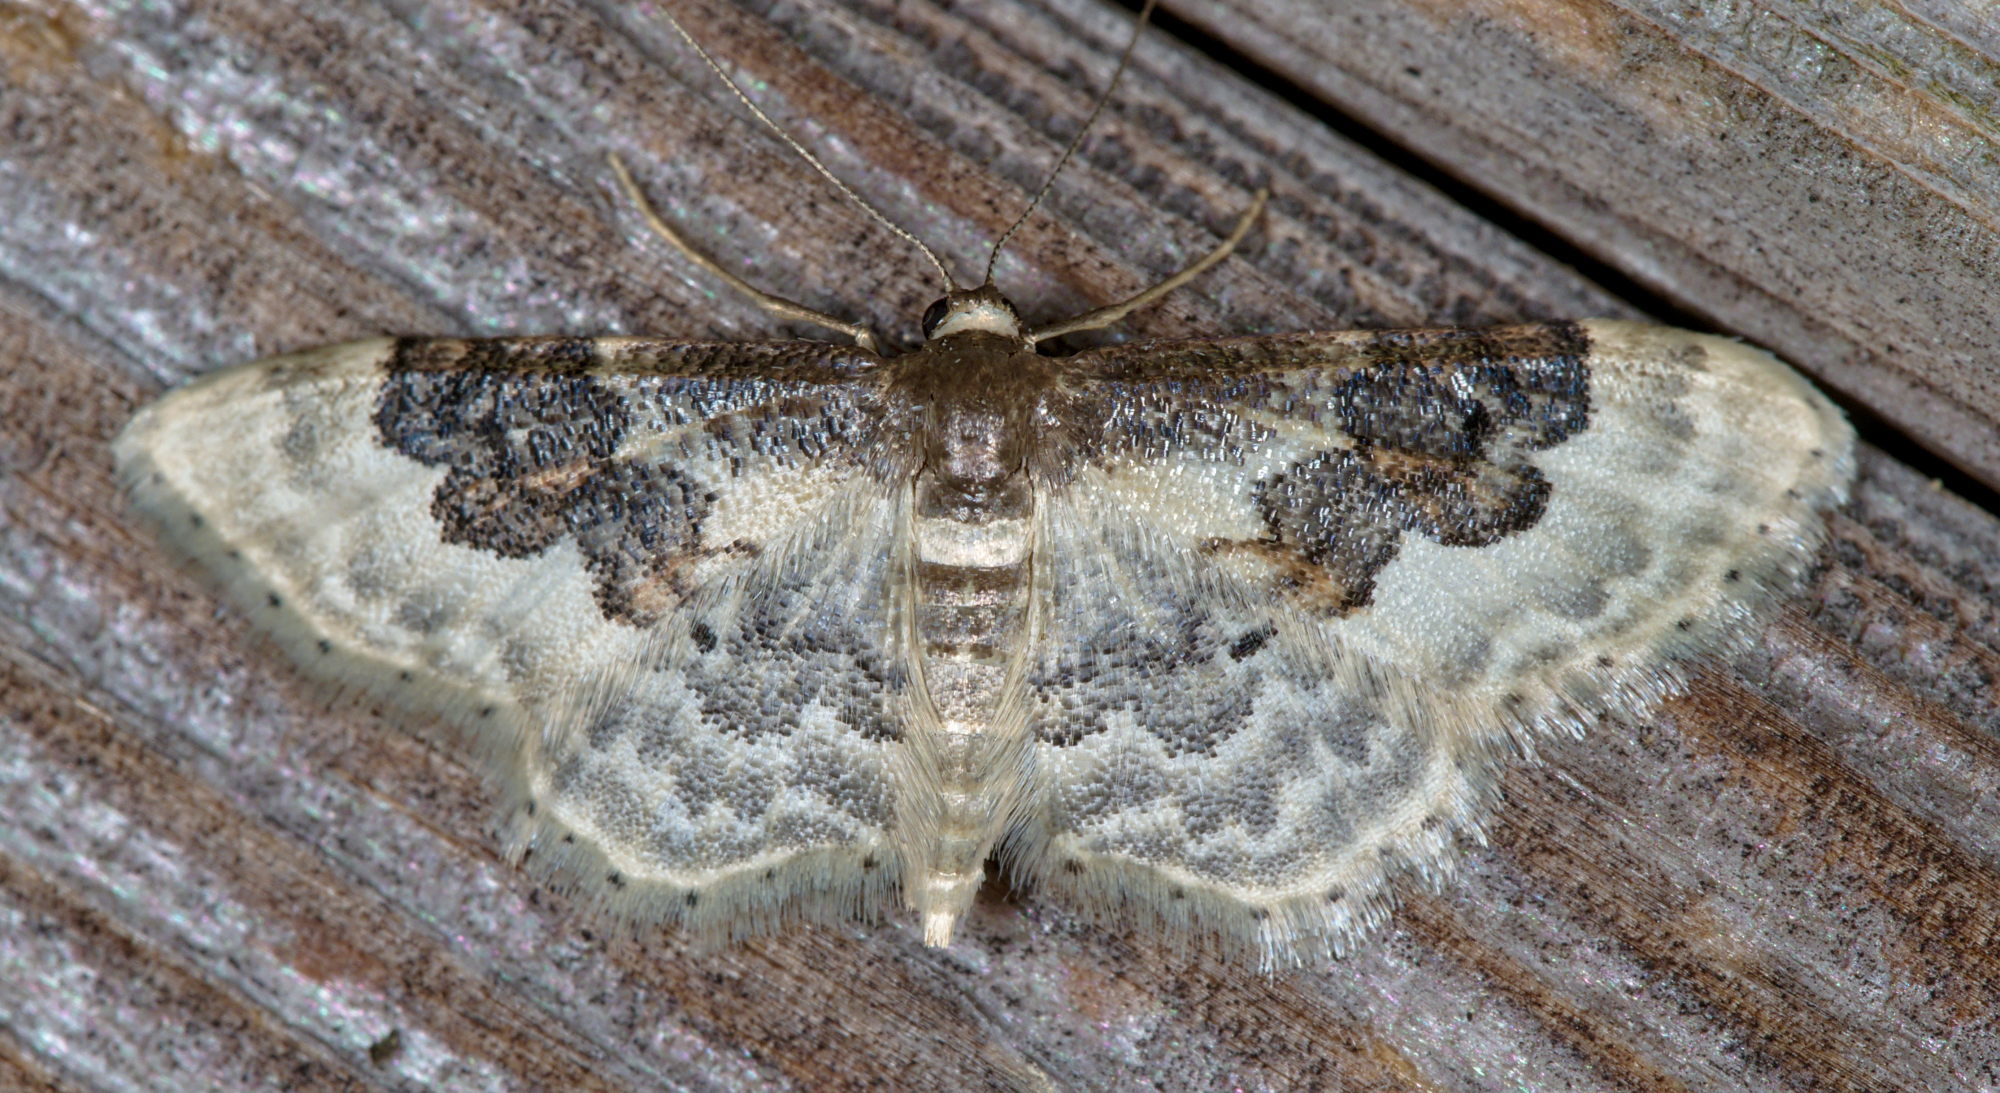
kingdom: Animalia
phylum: Arthropoda
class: Insecta
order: Lepidoptera
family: Geometridae
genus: Idaea
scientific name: Idaea rusticata
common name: Least carpet
